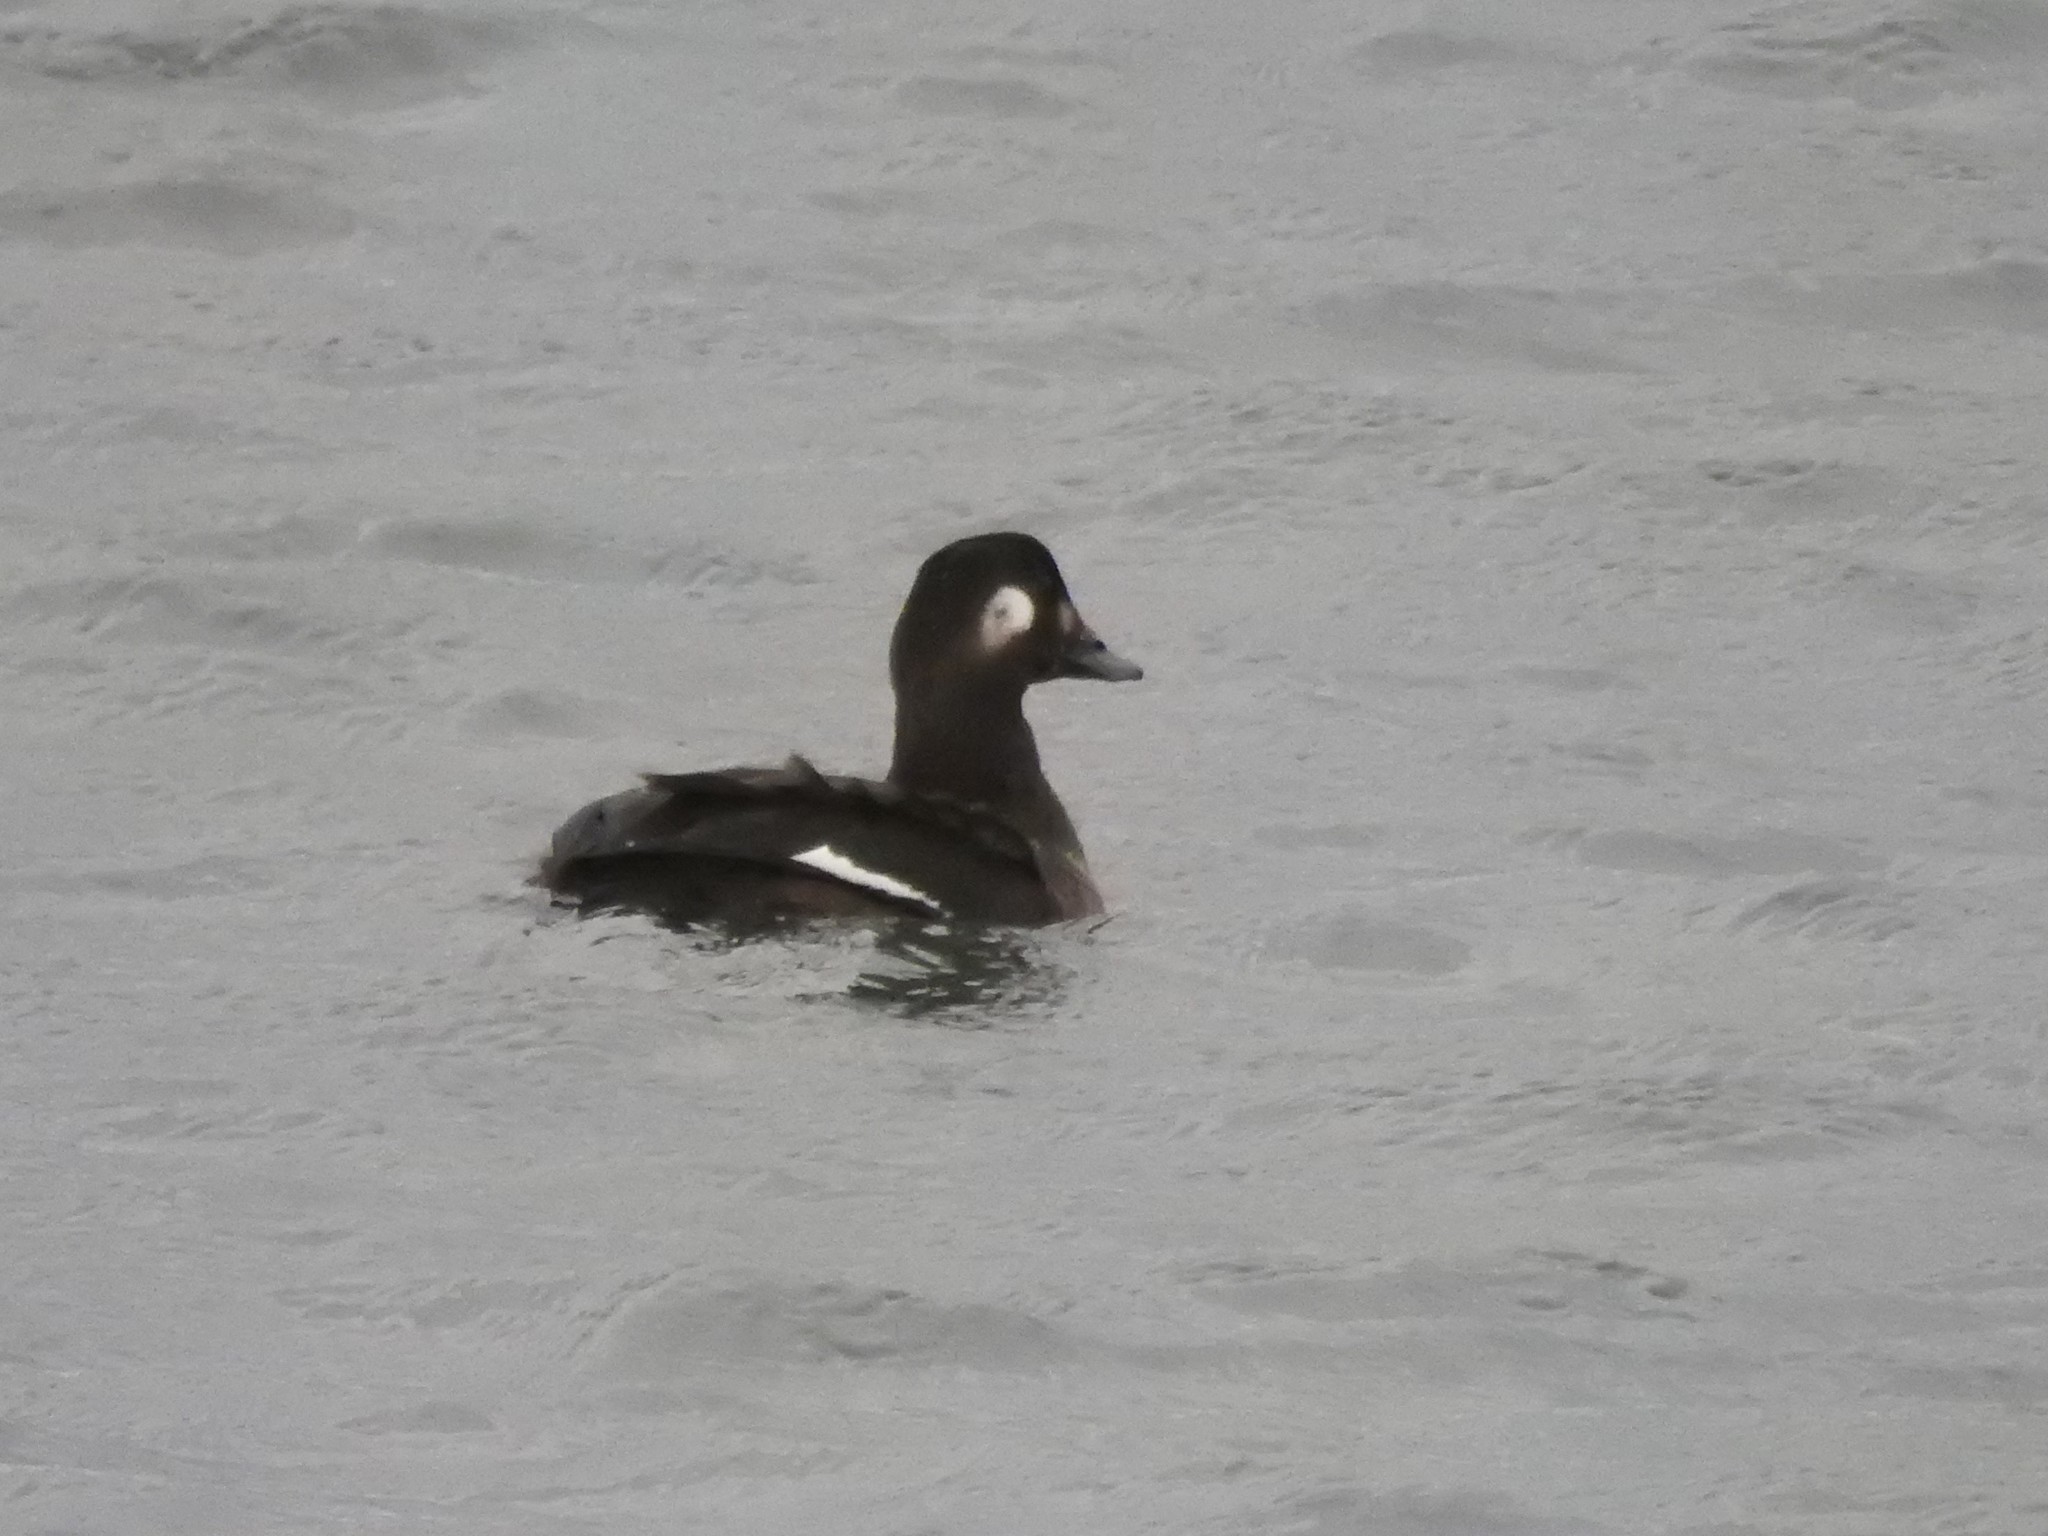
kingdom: Animalia
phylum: Chordata
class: Aves
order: Anseriformes
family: Anatidae
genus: Melanitta
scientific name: Melanitta deglandi
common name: White-winged scoter
